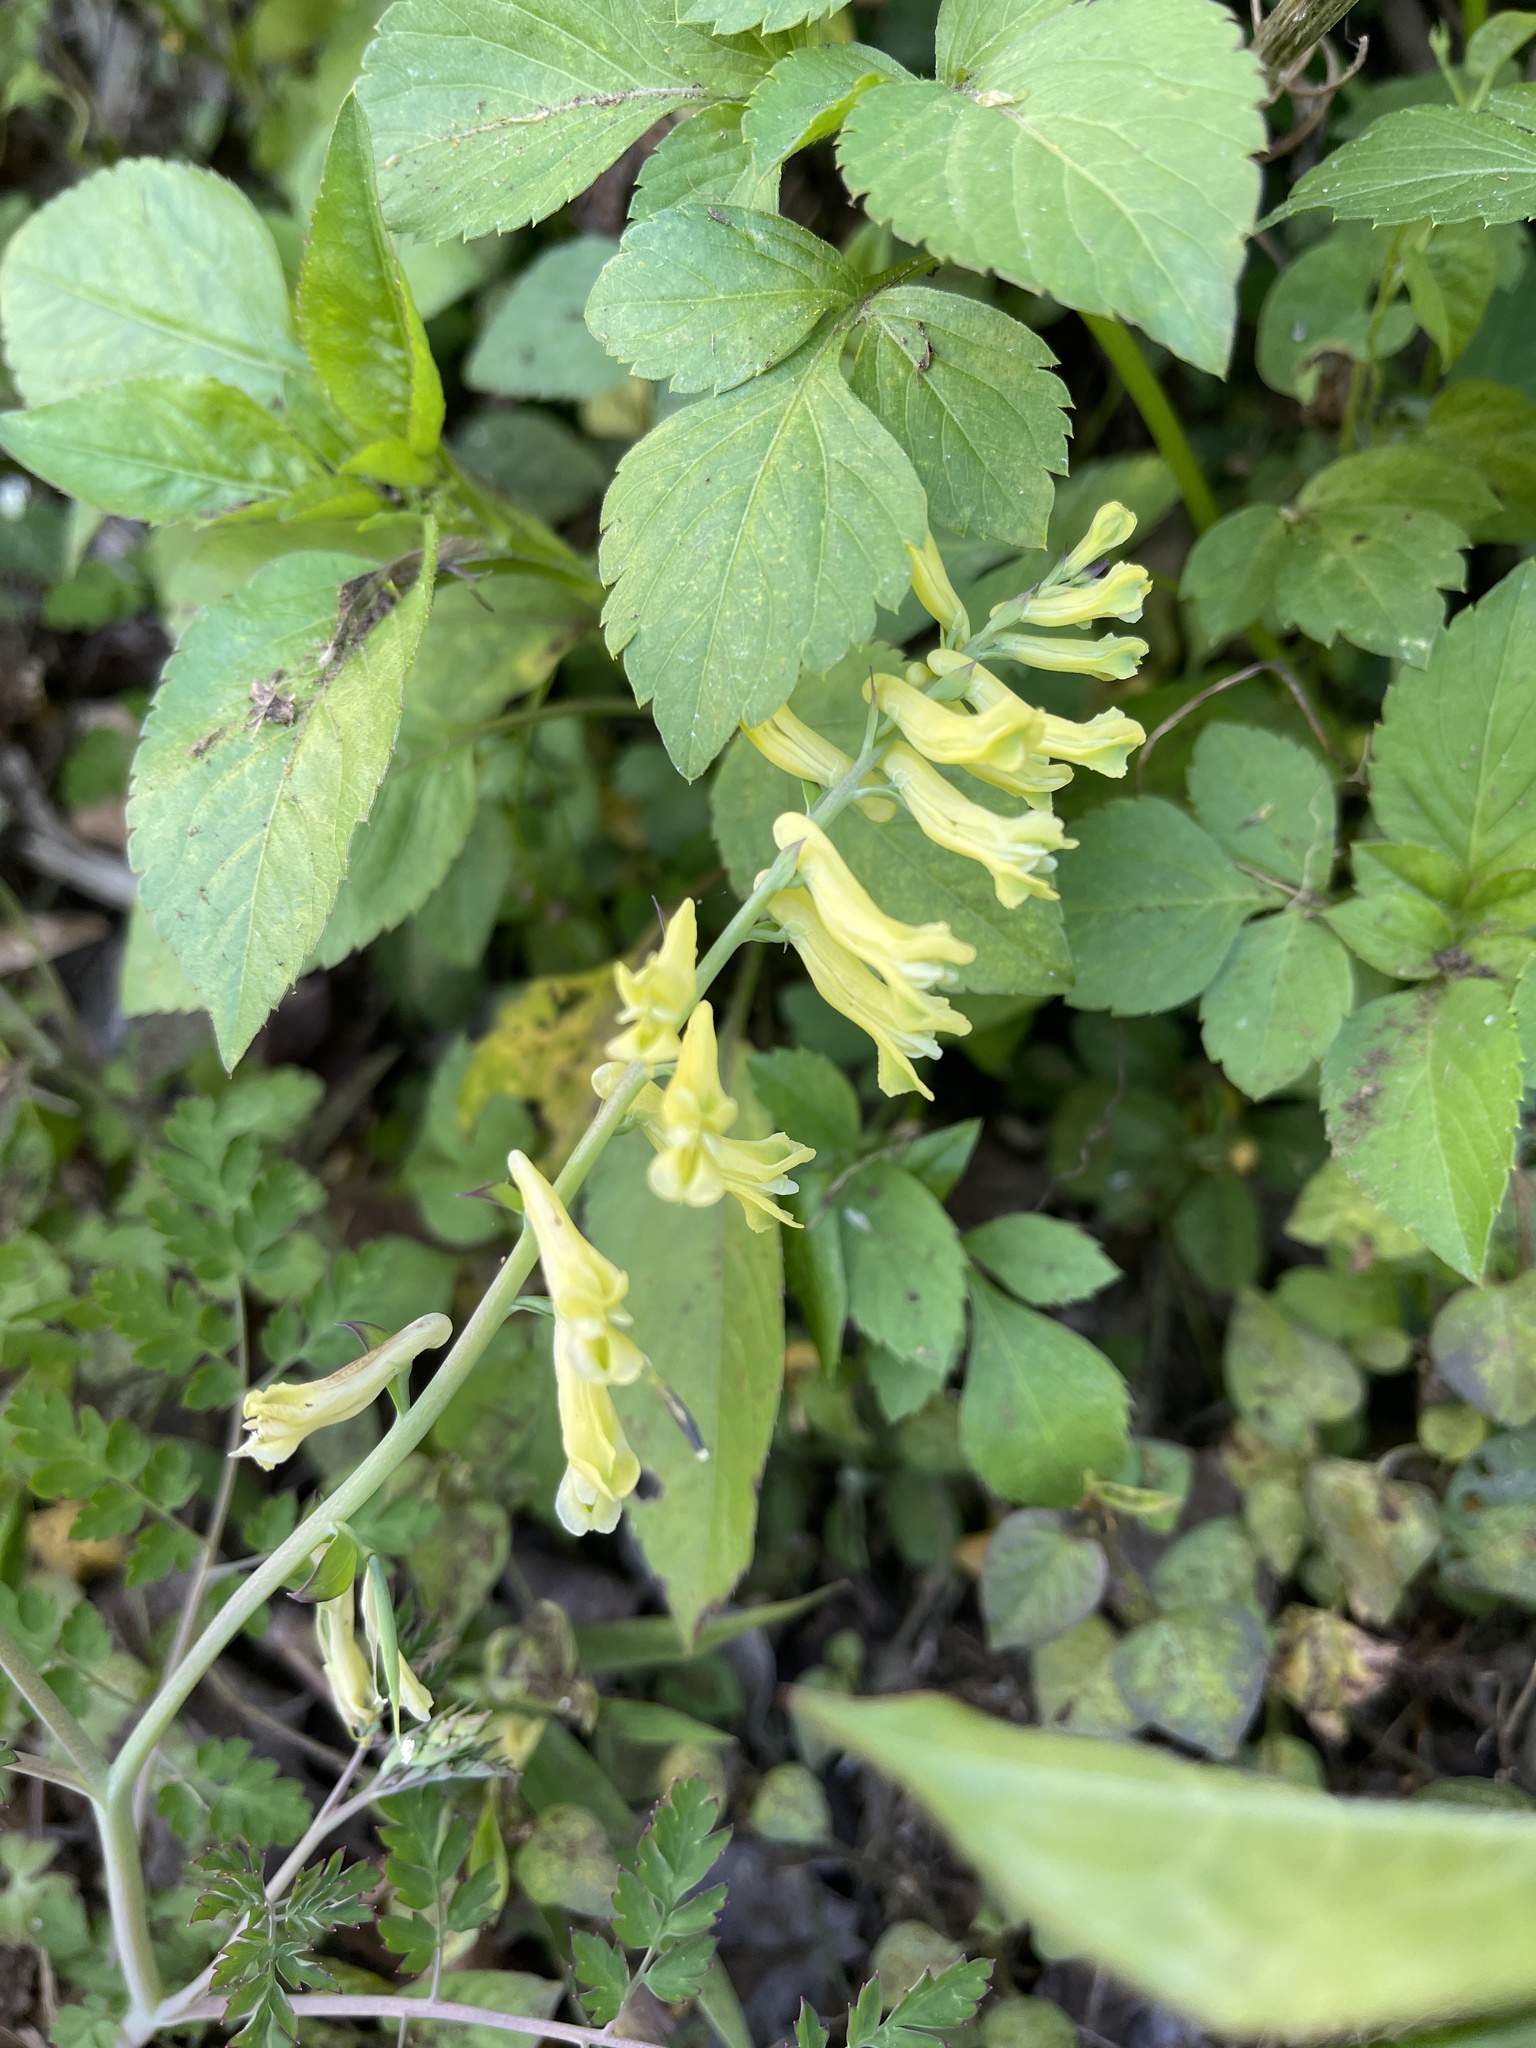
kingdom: Plantae
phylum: Tracheophyta
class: Magnoliopsida
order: Ranunculales
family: Papaveraceae
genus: Corydalis
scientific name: Corydalis balansae
